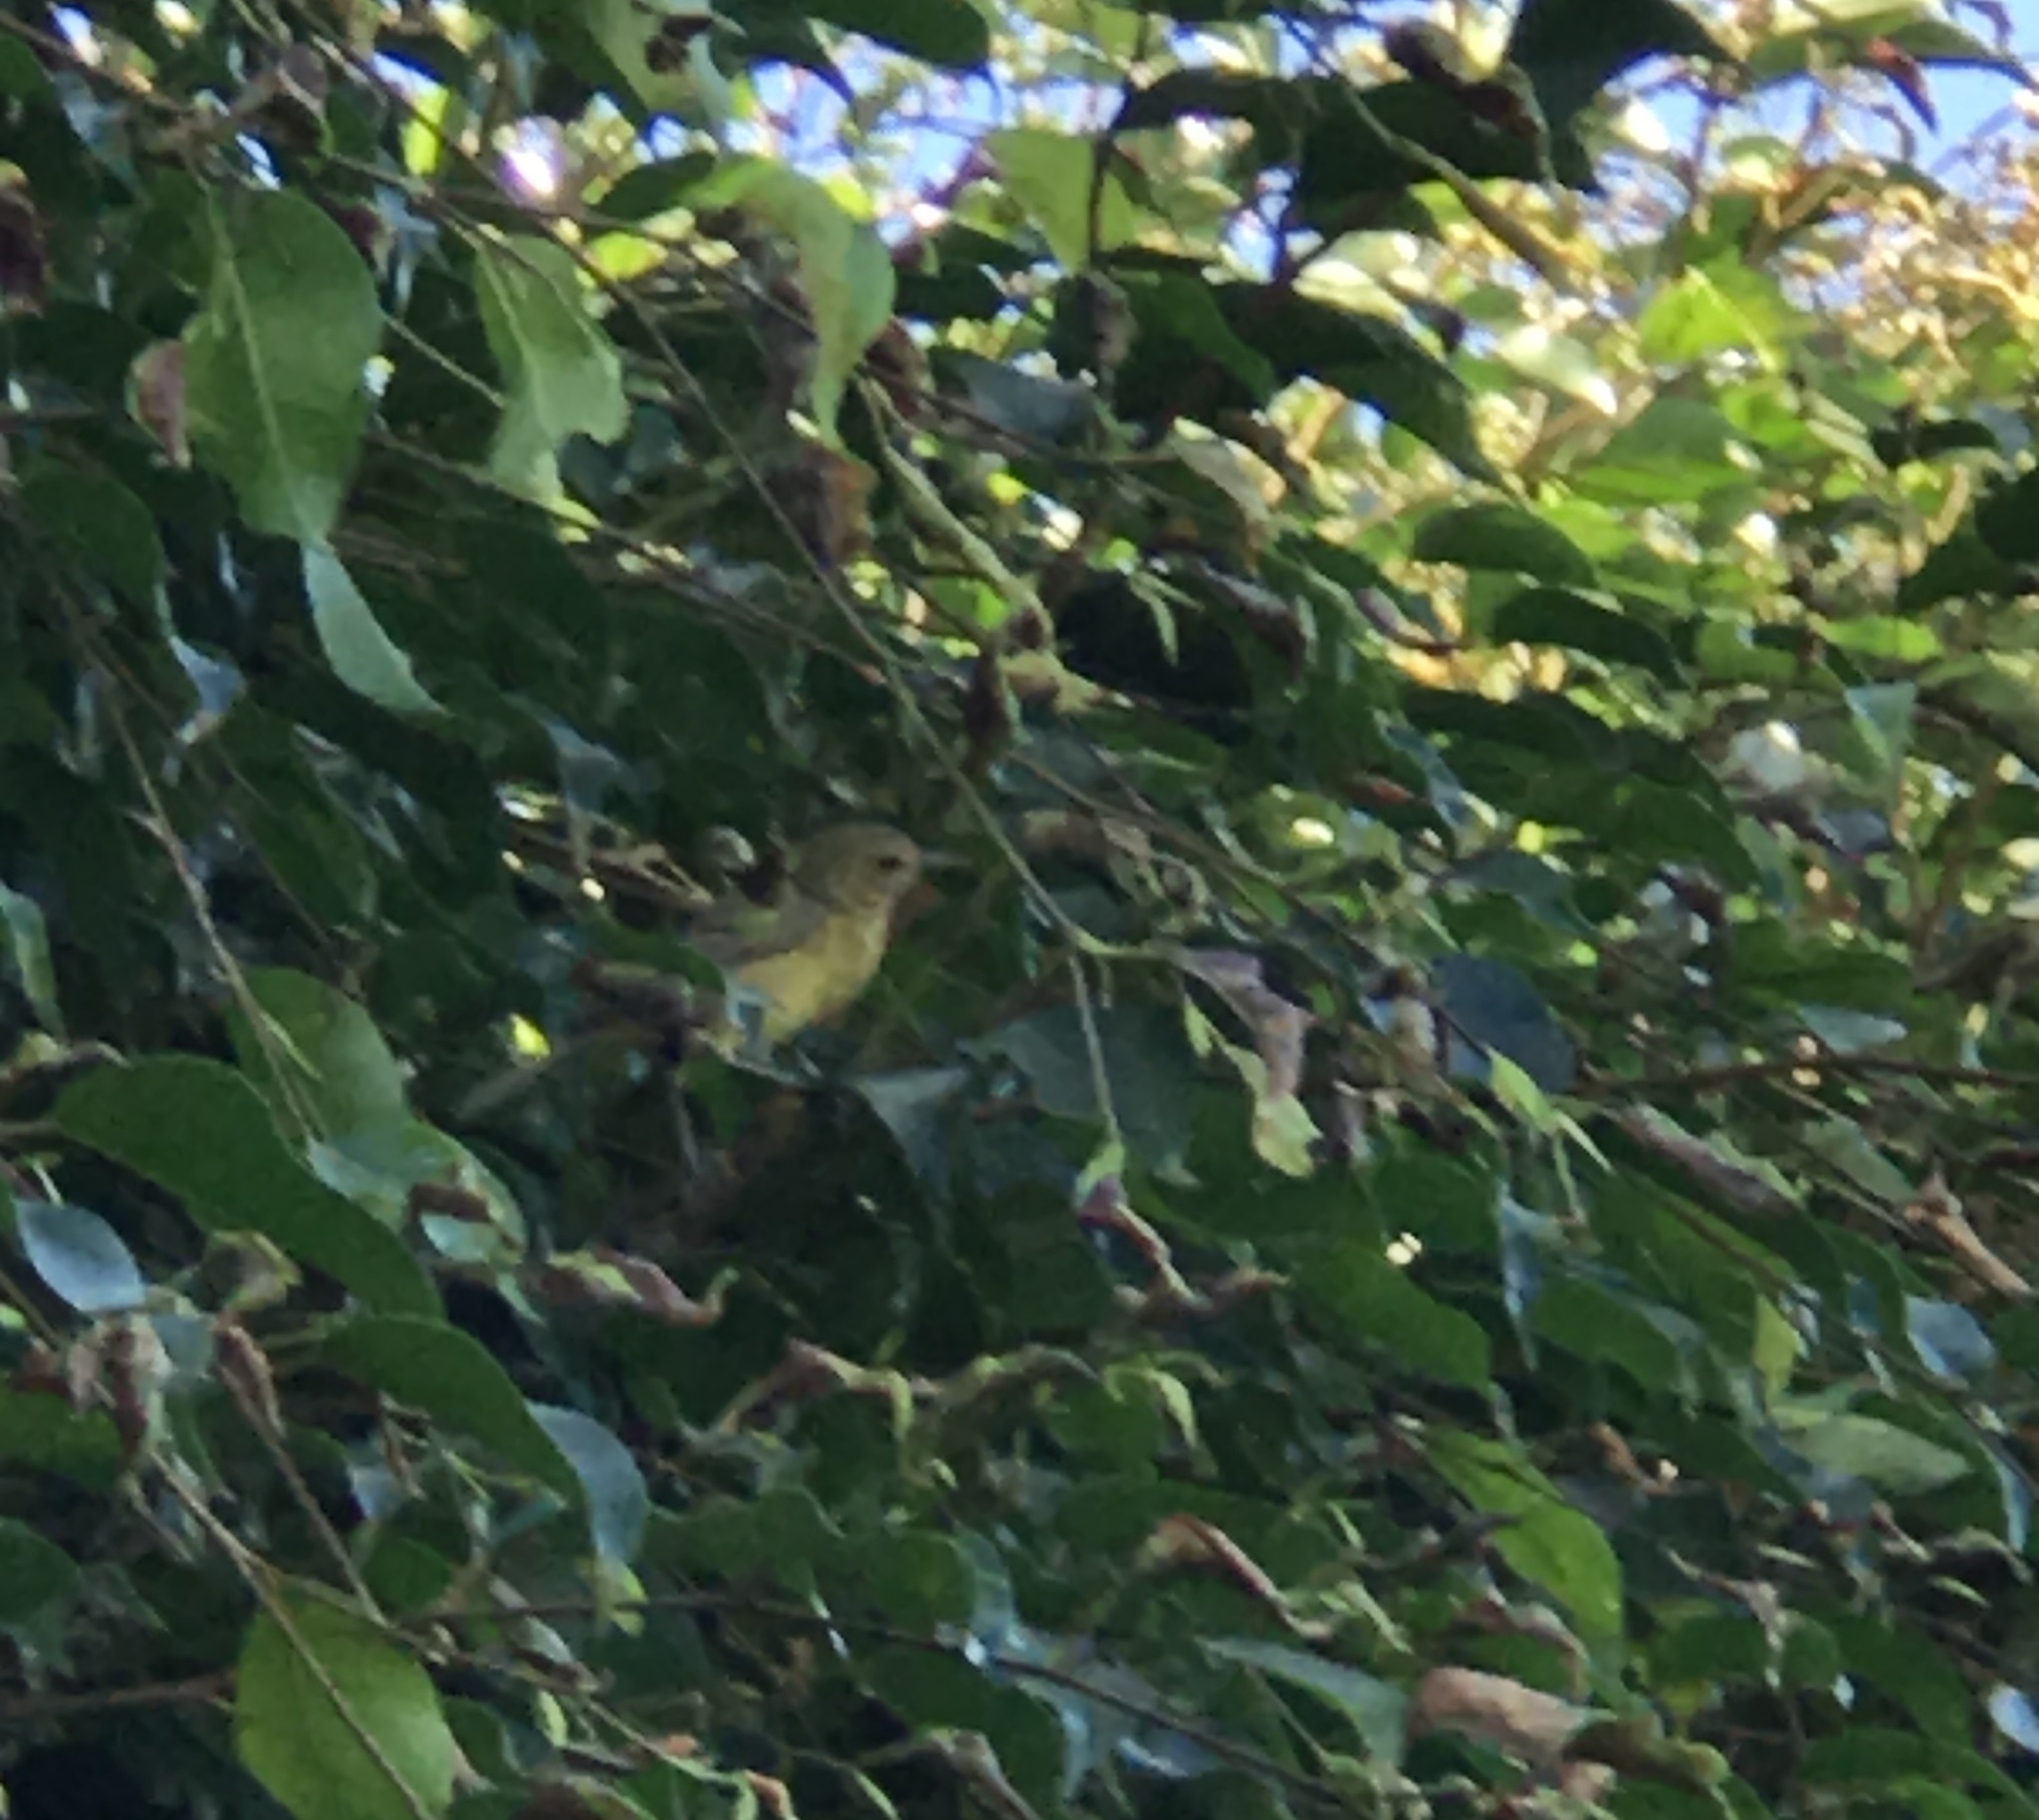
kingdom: Animalia
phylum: Chordata
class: Aves
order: Passeriformes
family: Parulidae
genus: Leiothlypis
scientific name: Leiothlypis celata
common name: Orange-crowned warbler
